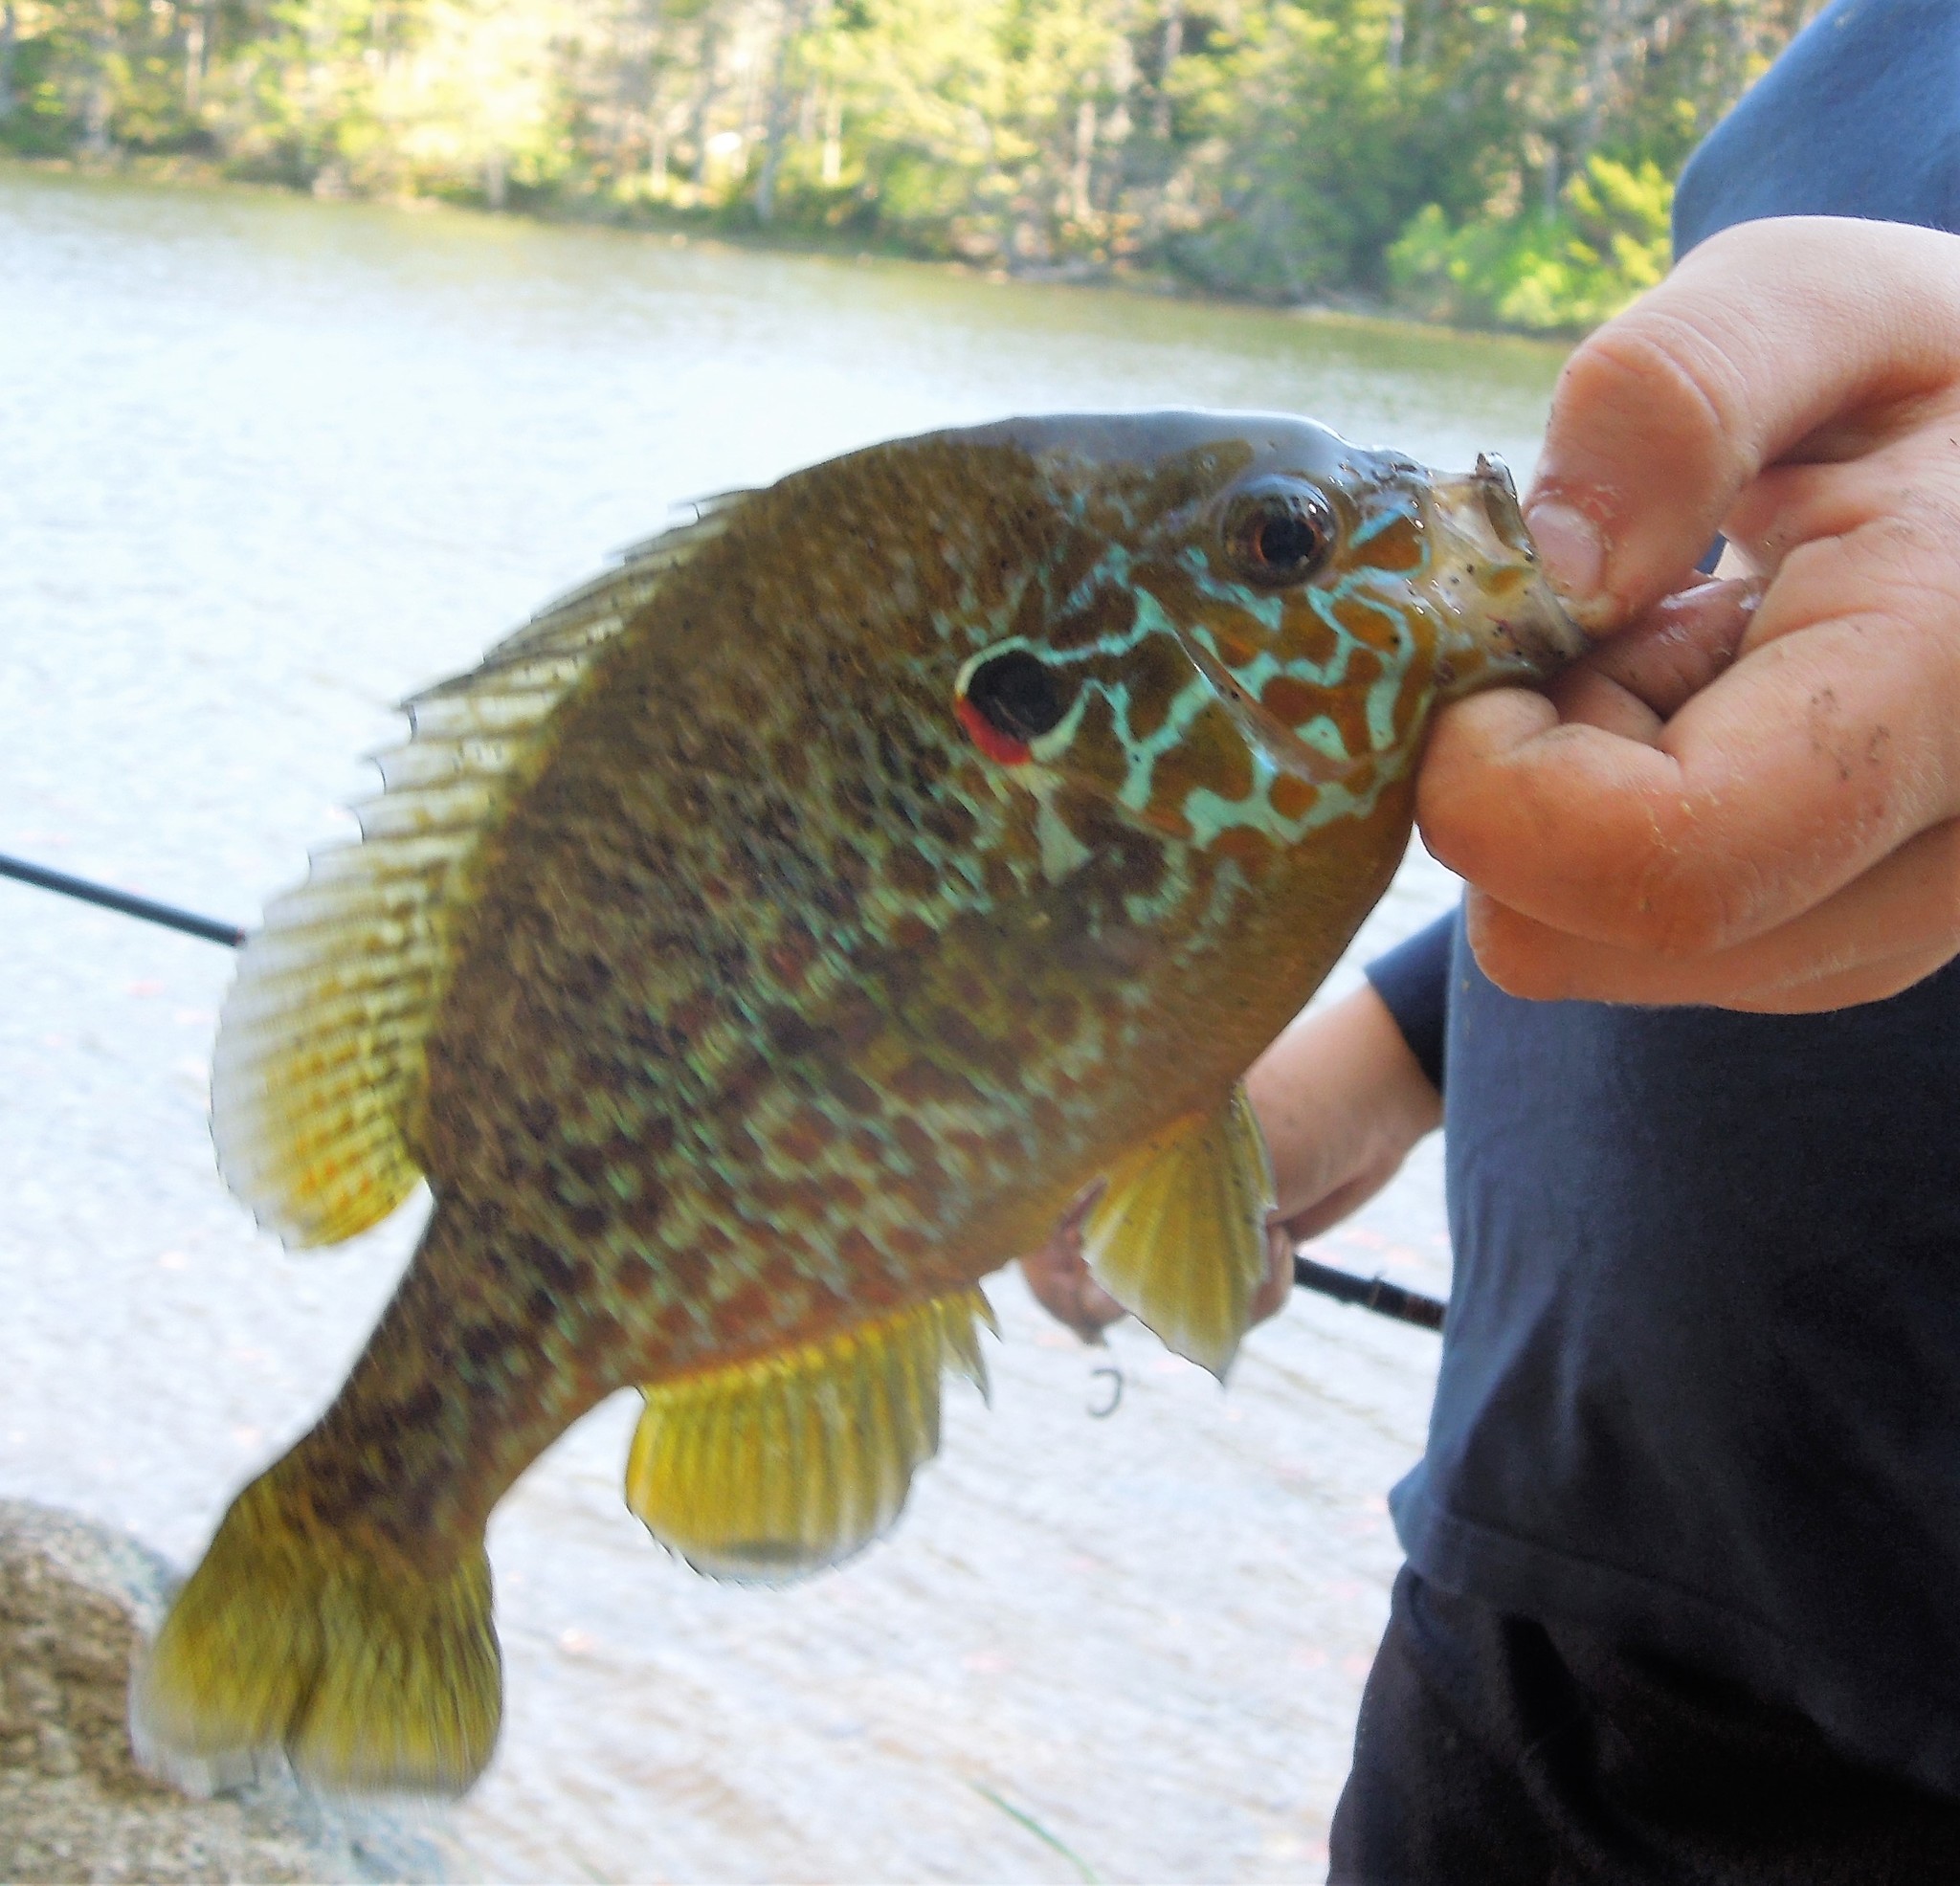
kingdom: Animalia
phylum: Chordata
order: Perciformes
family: Centrarchidae
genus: Lepomis
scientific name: Lepomis gibbosus
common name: Pumpkinseed
